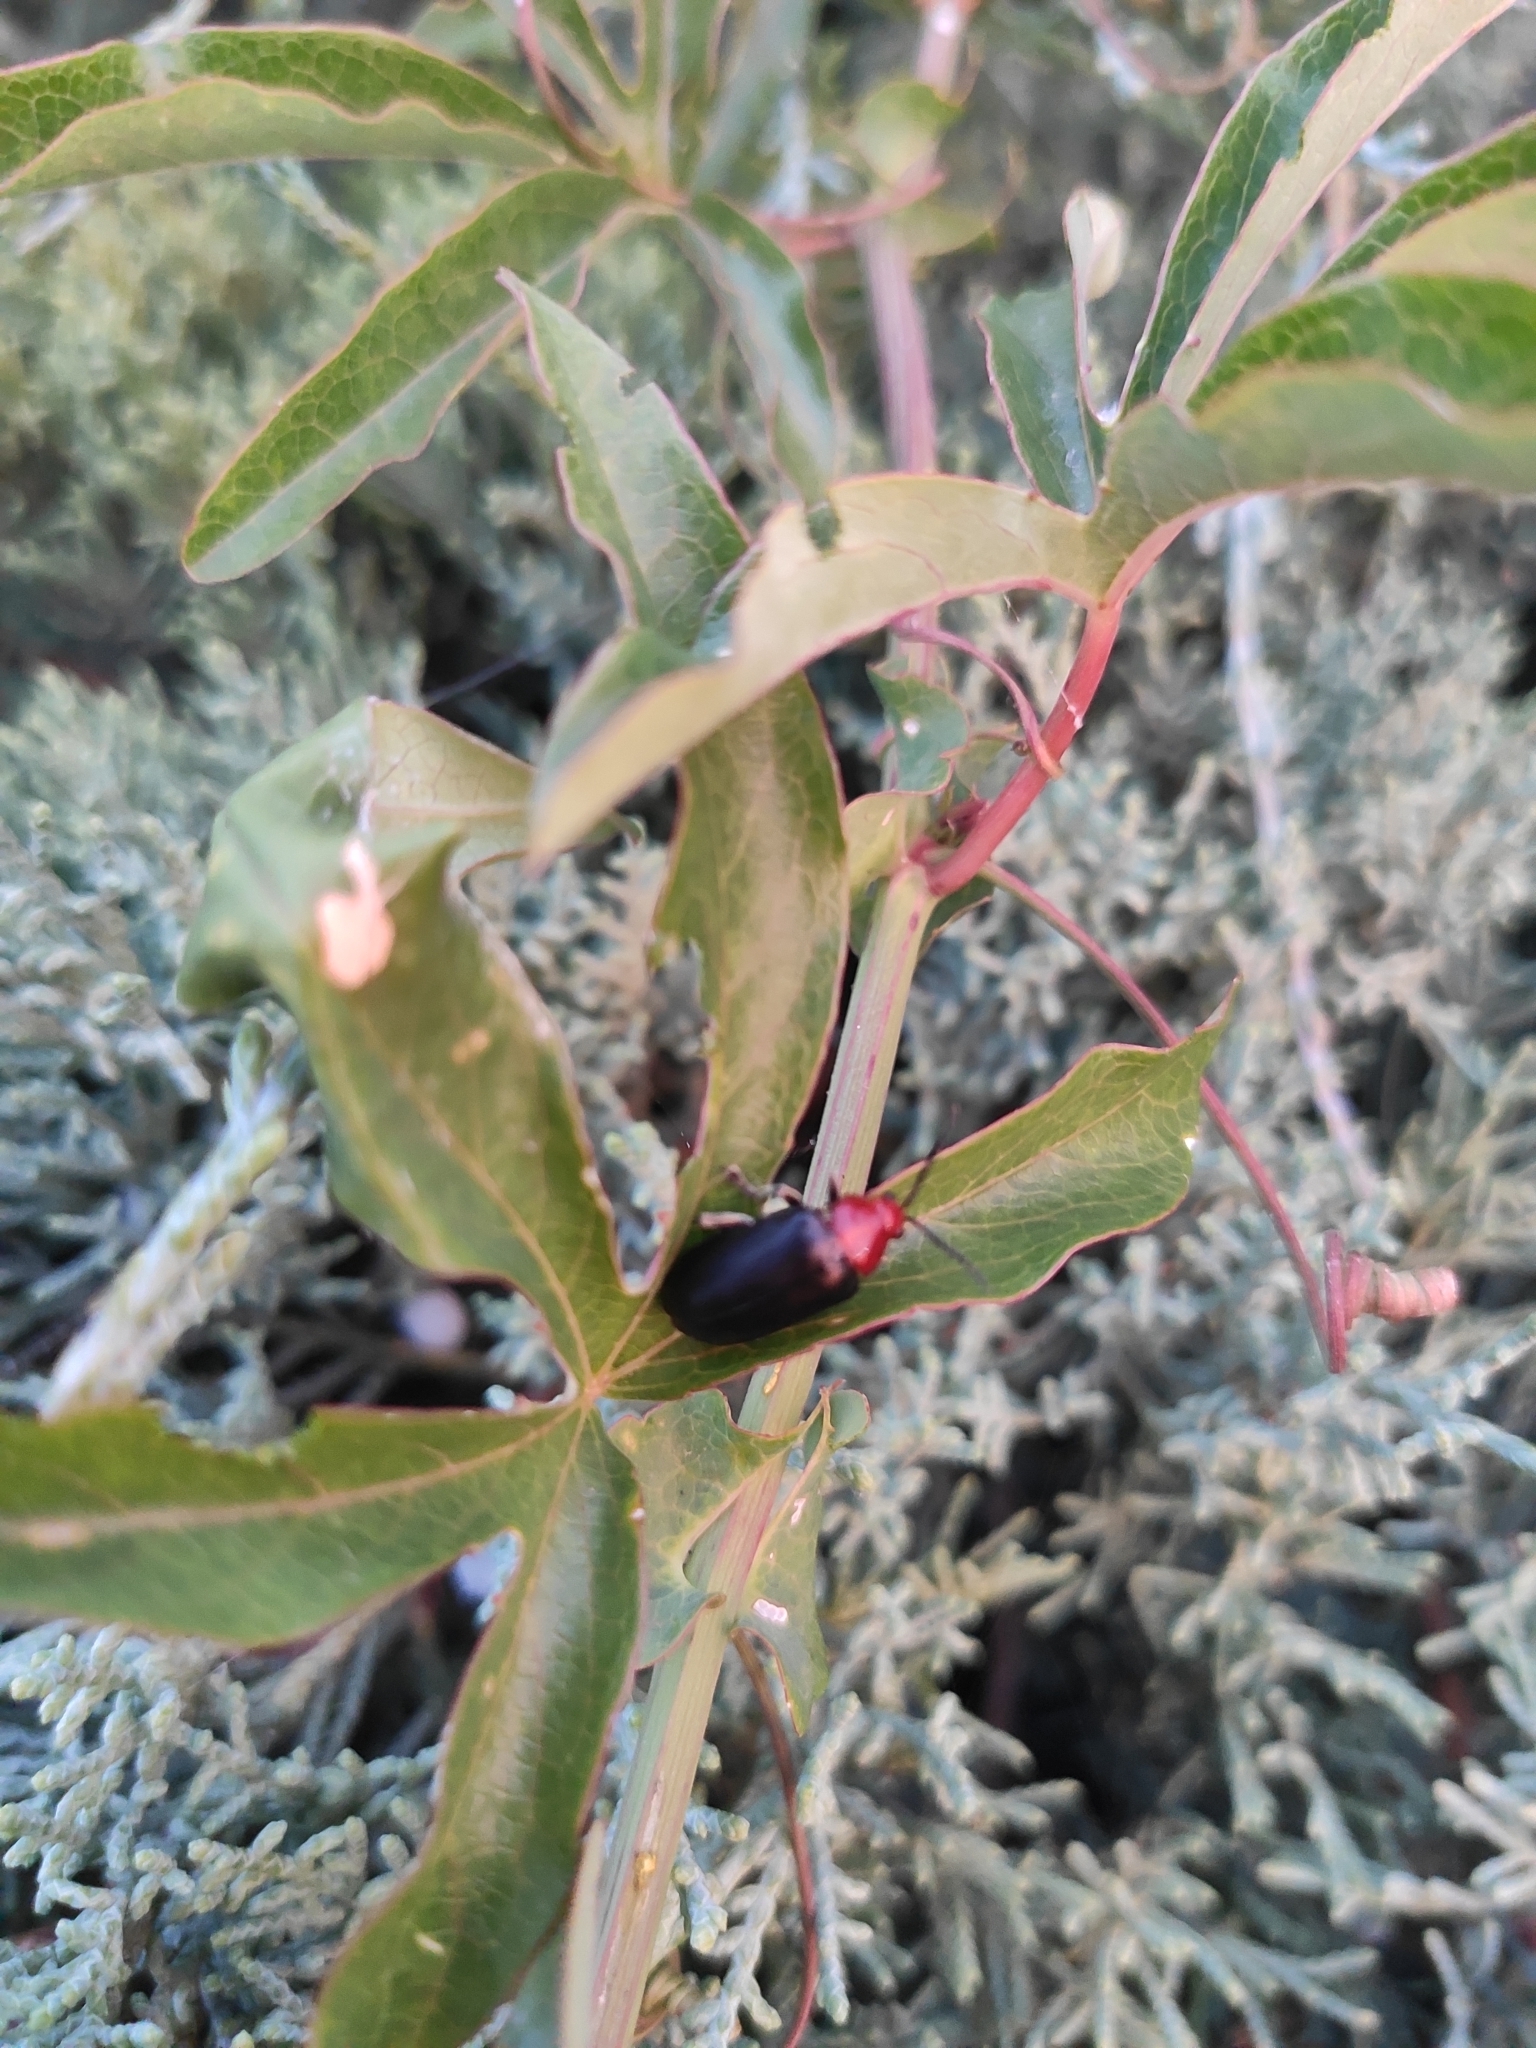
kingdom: Animalia
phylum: Arthropoda
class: Insecta
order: Coleoptera
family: Chrysomelidae
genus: Cacoscelis
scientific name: Cacoscelis
